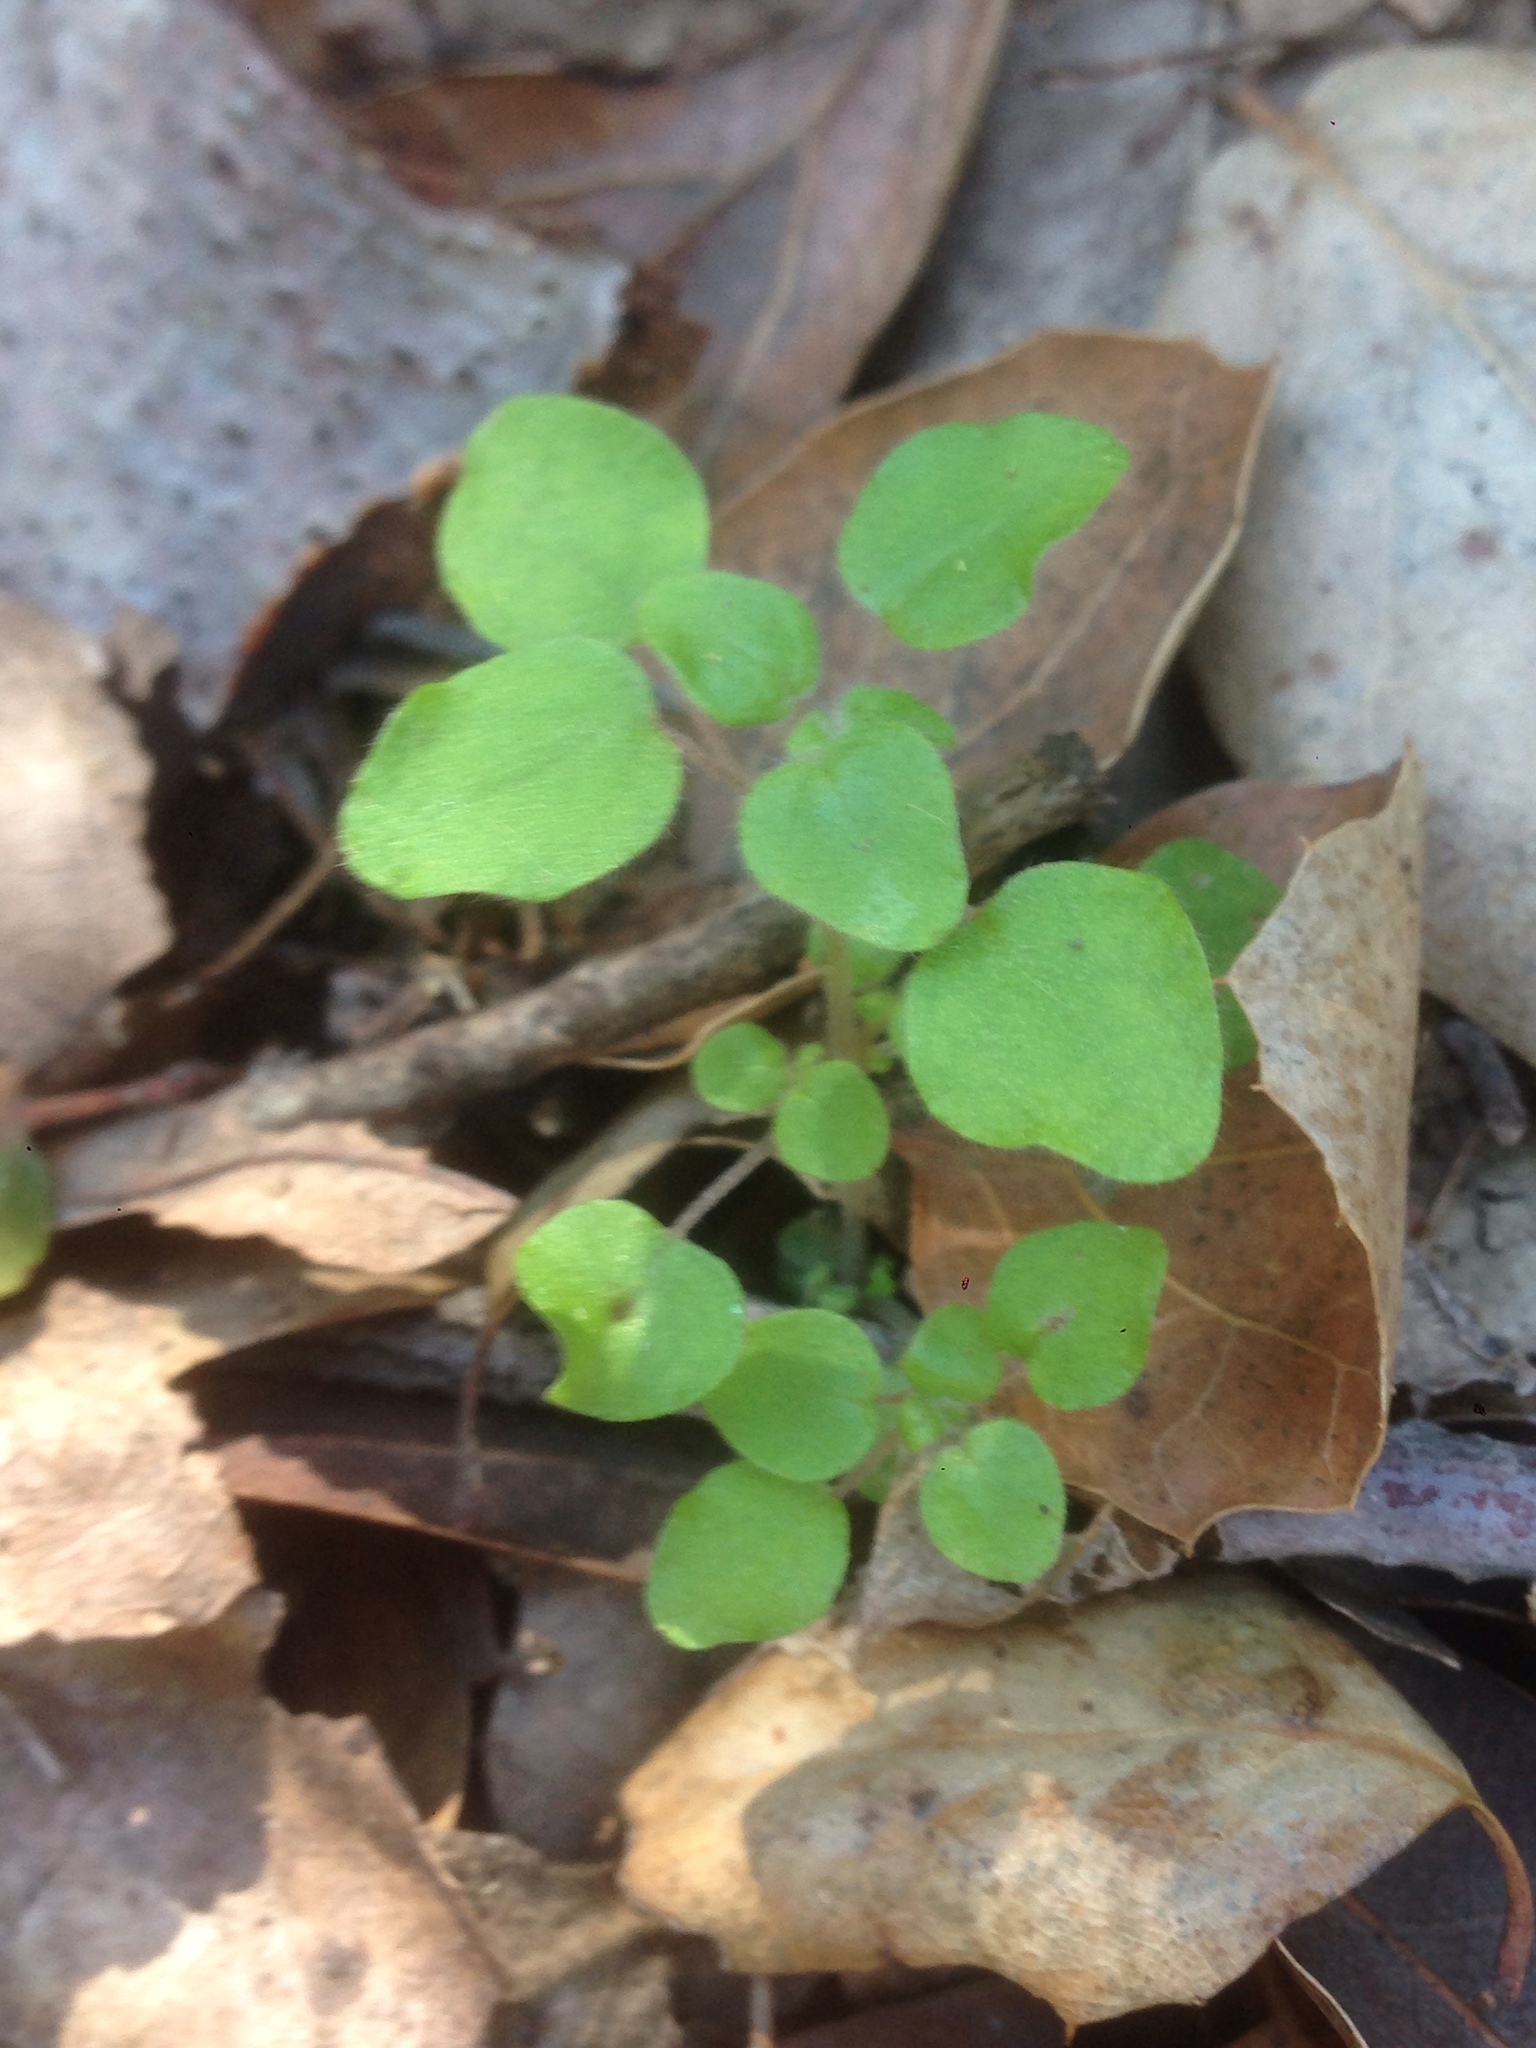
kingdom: Plantae
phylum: Tracheophyta
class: Magnoliopsida
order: Rosales
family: Urticaceae
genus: Parietaria
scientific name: Parietaria hespera
